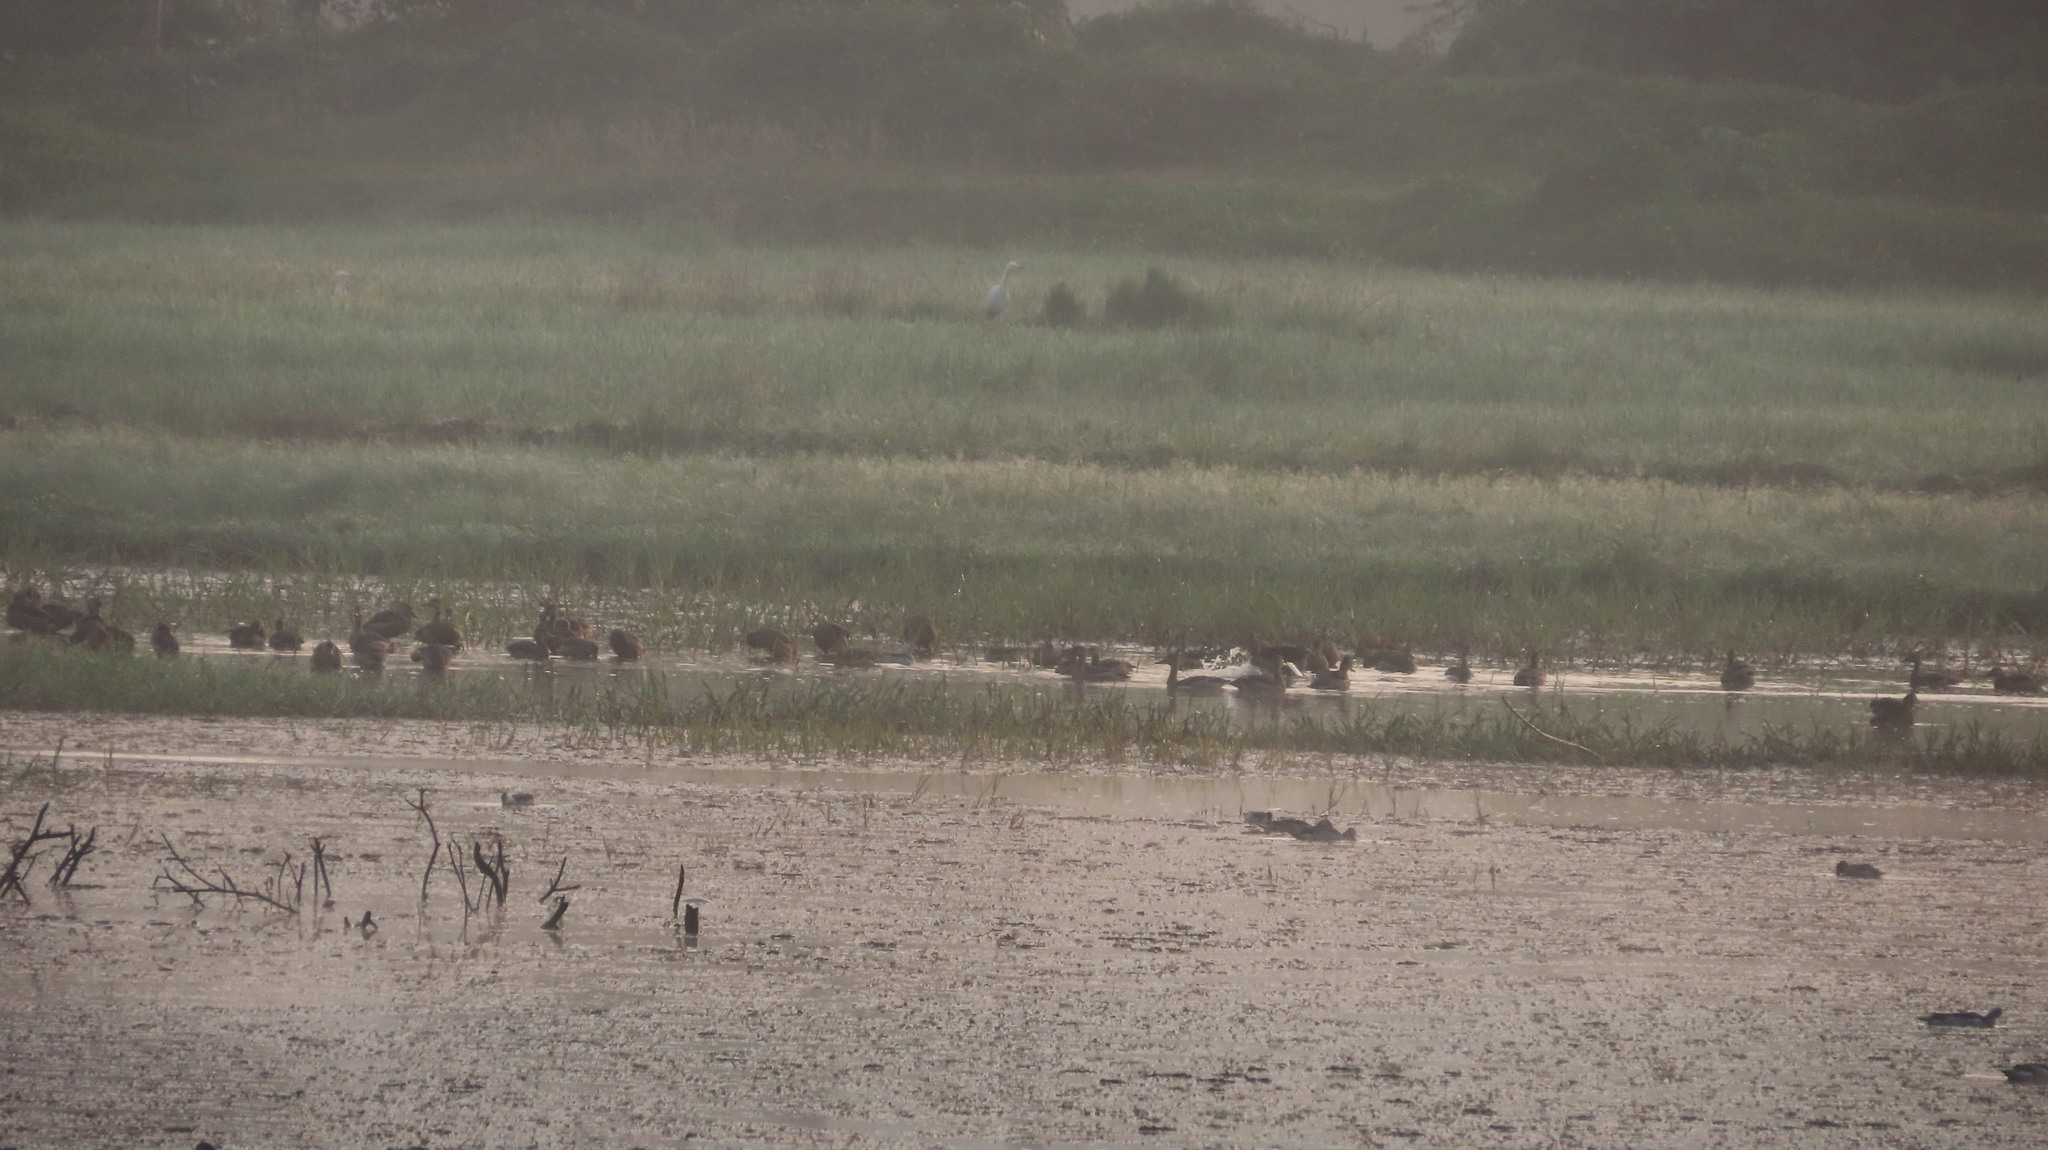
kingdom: Animalia
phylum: Chordata
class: Aves
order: Anseriformes
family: Anatidae
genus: Dendrocygna
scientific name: Dendrocygna javanica
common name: Lesser whistling-duck
